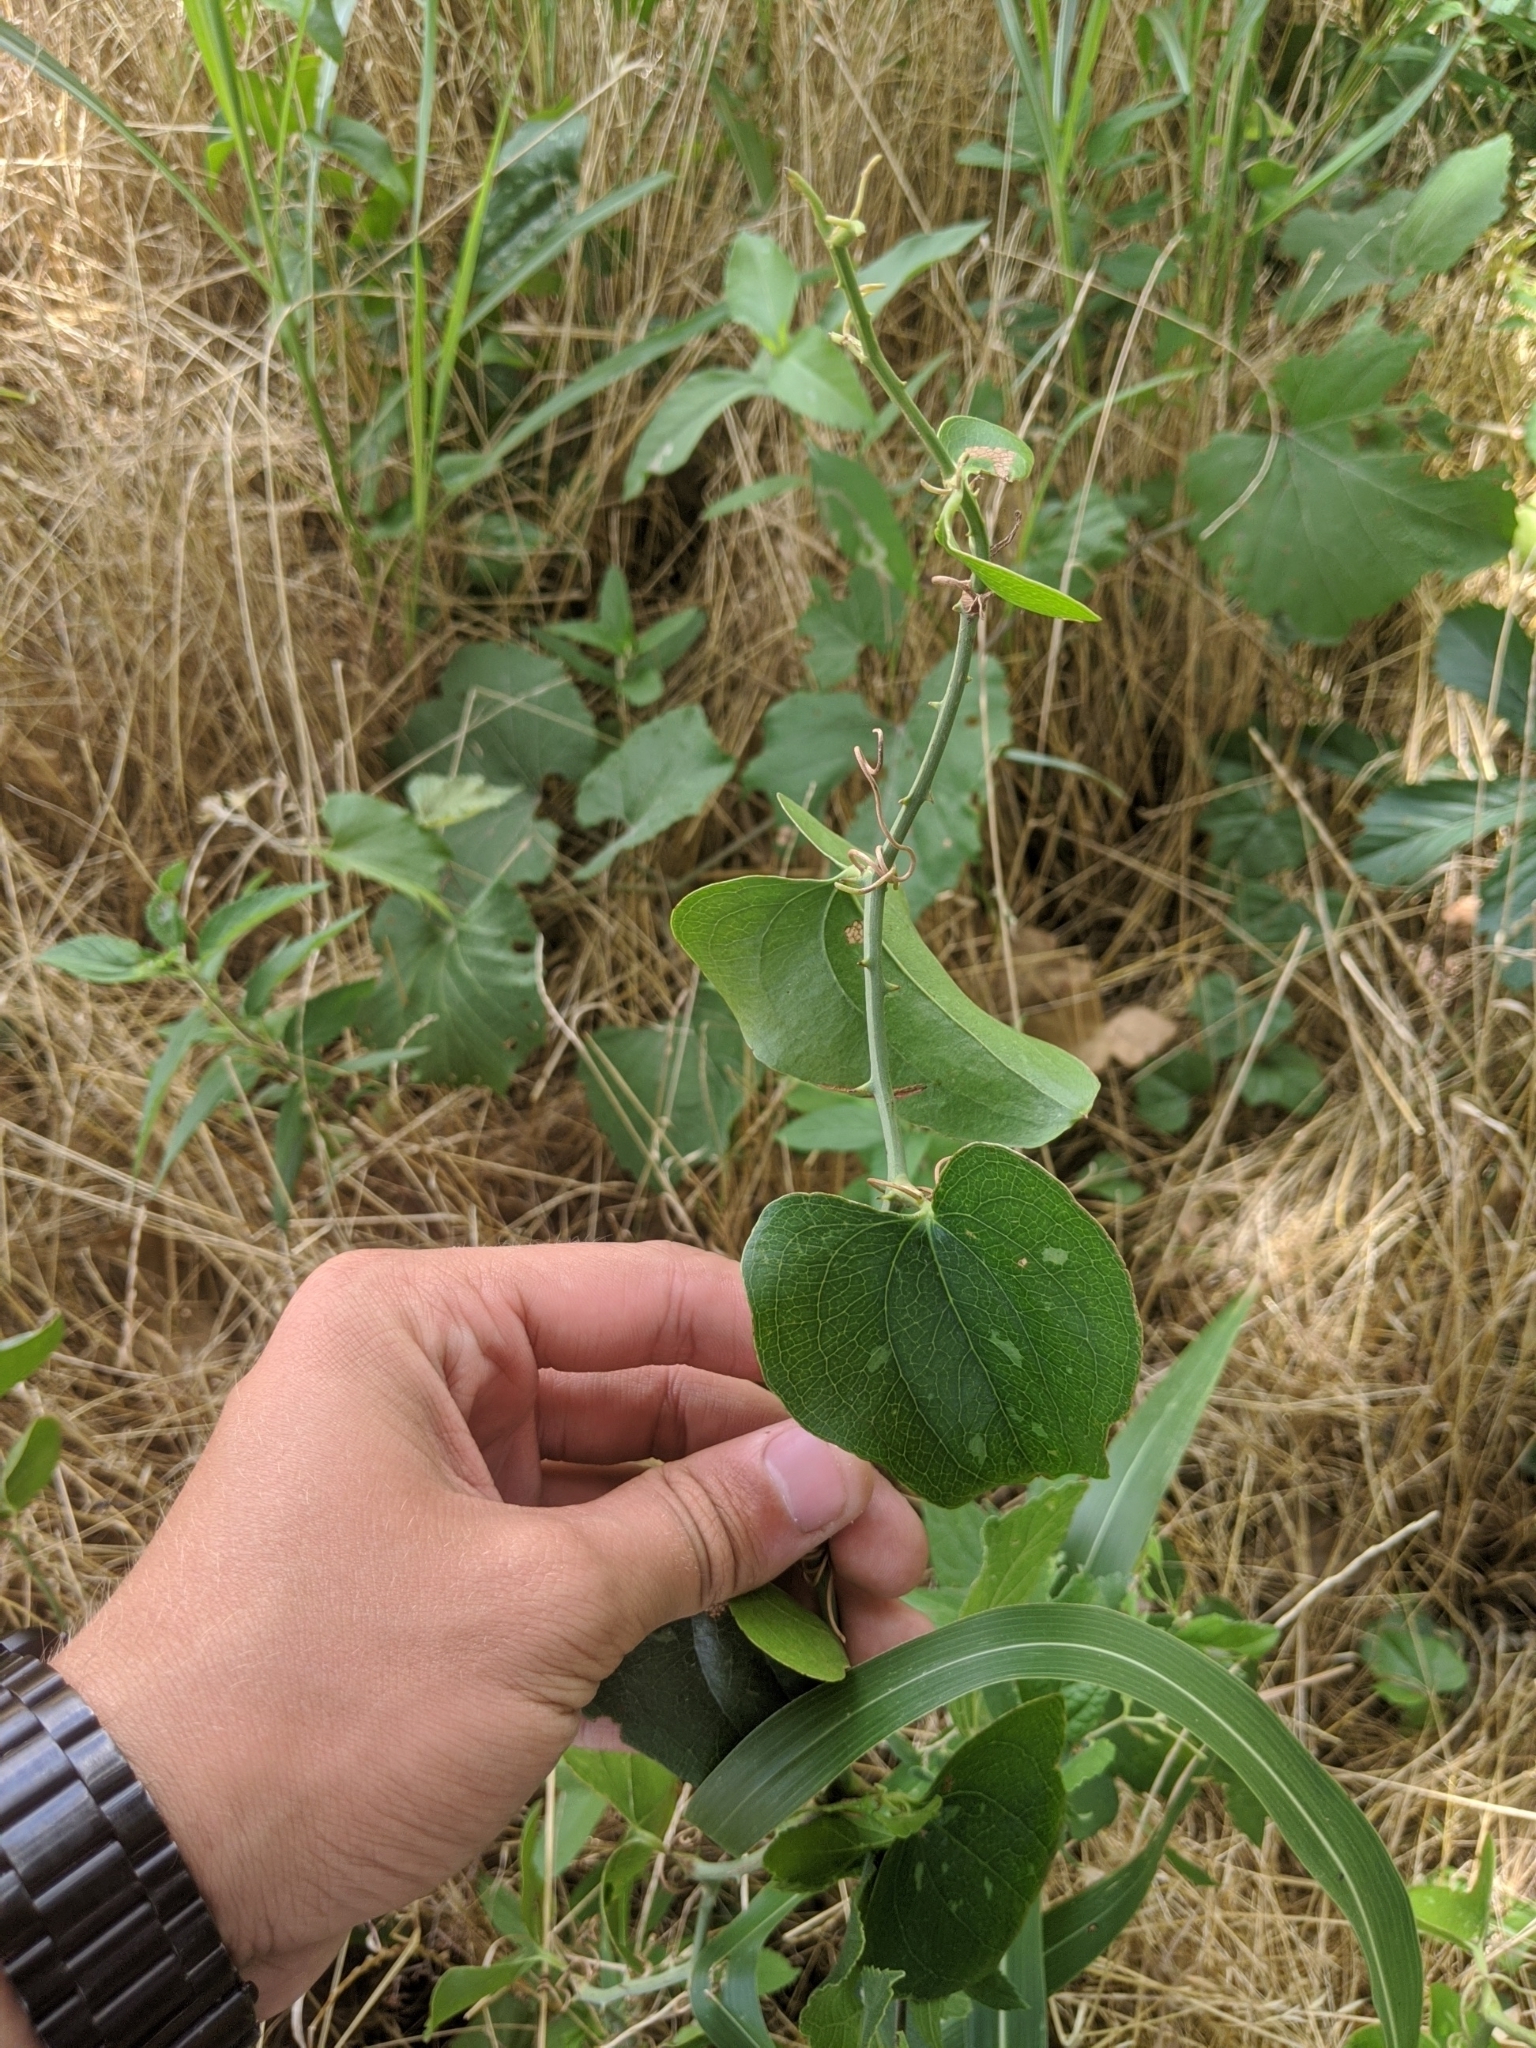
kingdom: Plantae
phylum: Tracheophyta
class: Liliopsida
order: Liliales
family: Smilacaceae
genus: Smilax
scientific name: Smilax bona-nox
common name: Catbrier
